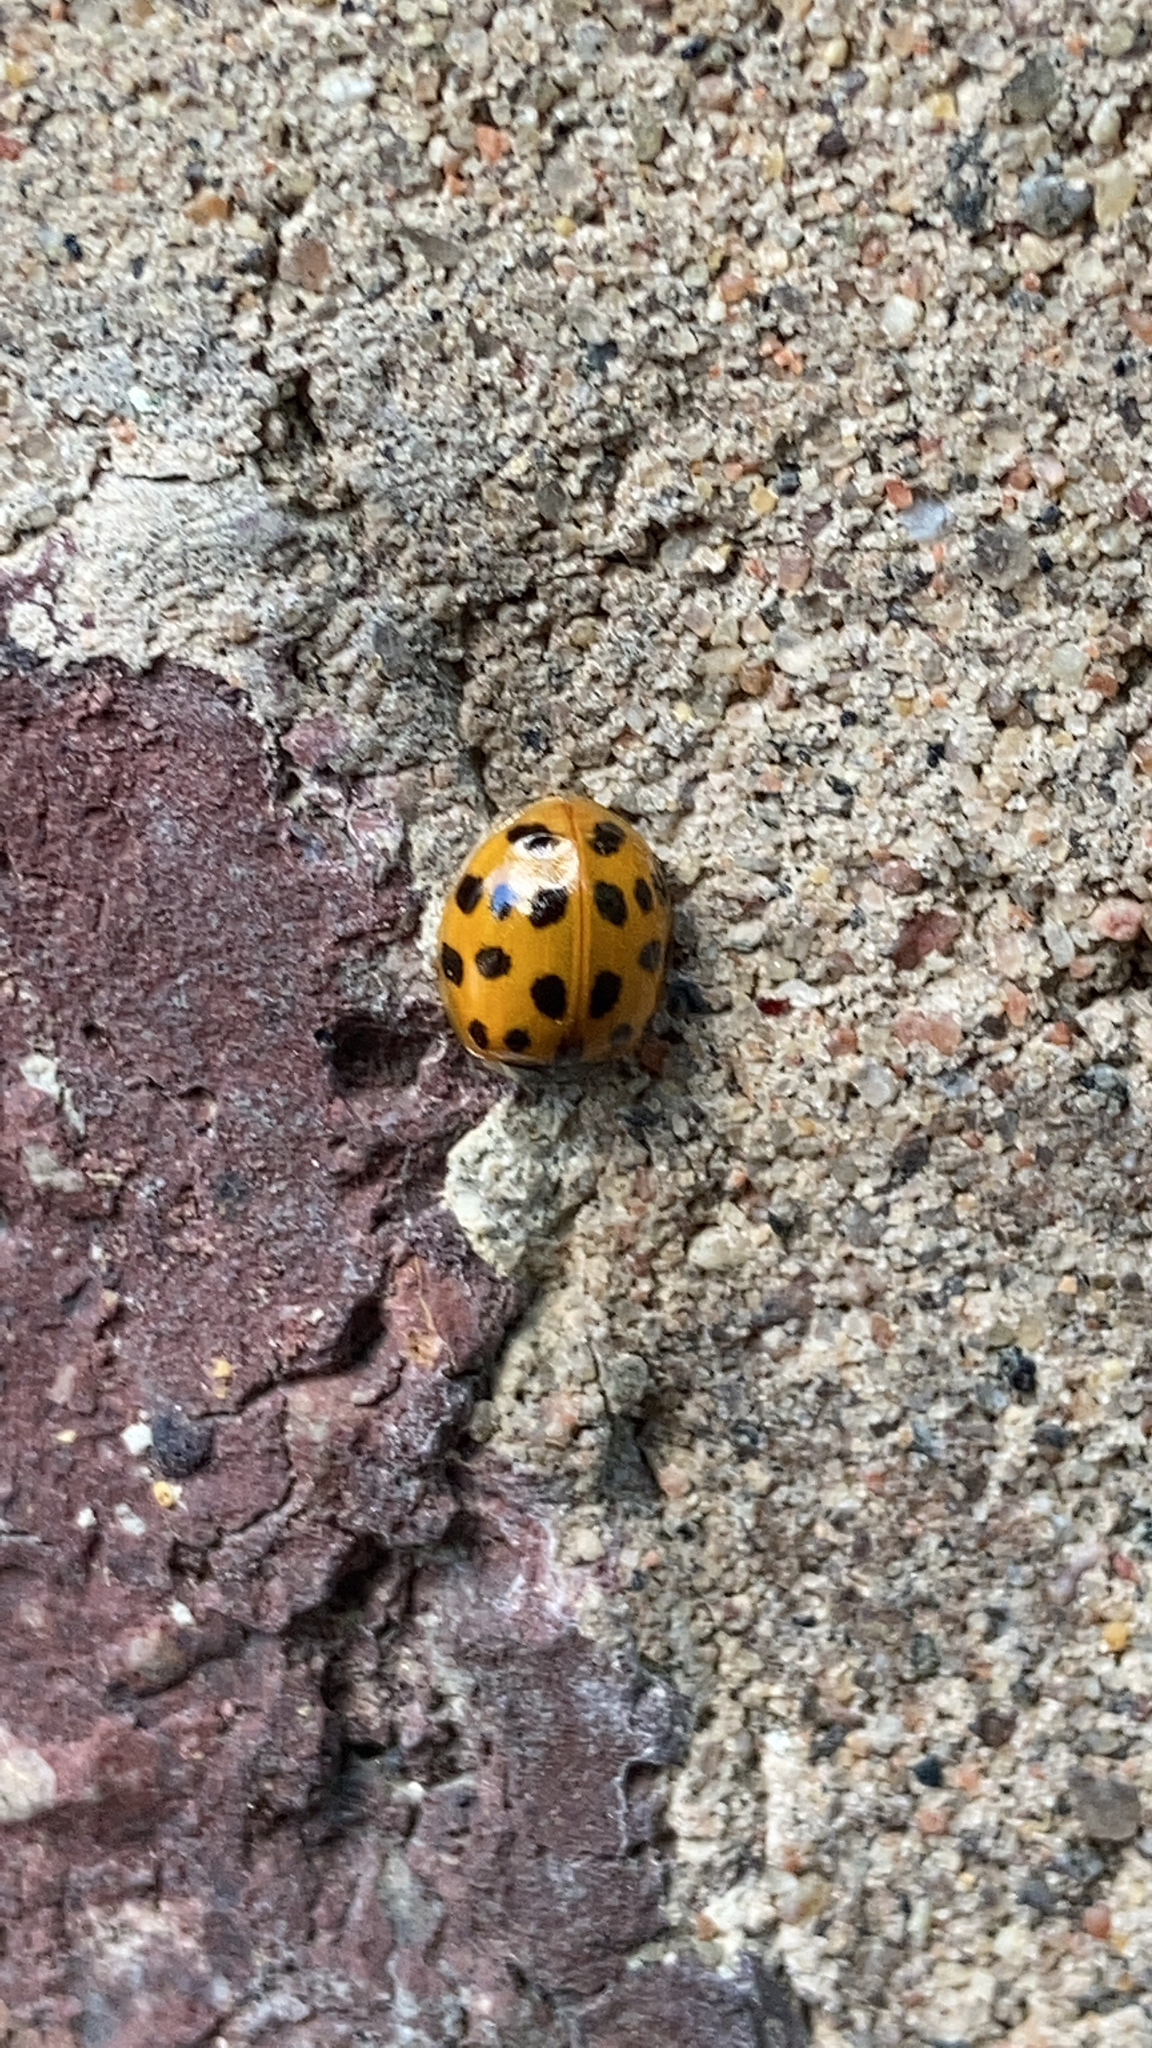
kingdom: Animalia
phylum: Arthropoda
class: Insecta
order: Coleoptera
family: Coccinellidae
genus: Harmonia
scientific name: Harmonia axyridis
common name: Harlequin ladybird
